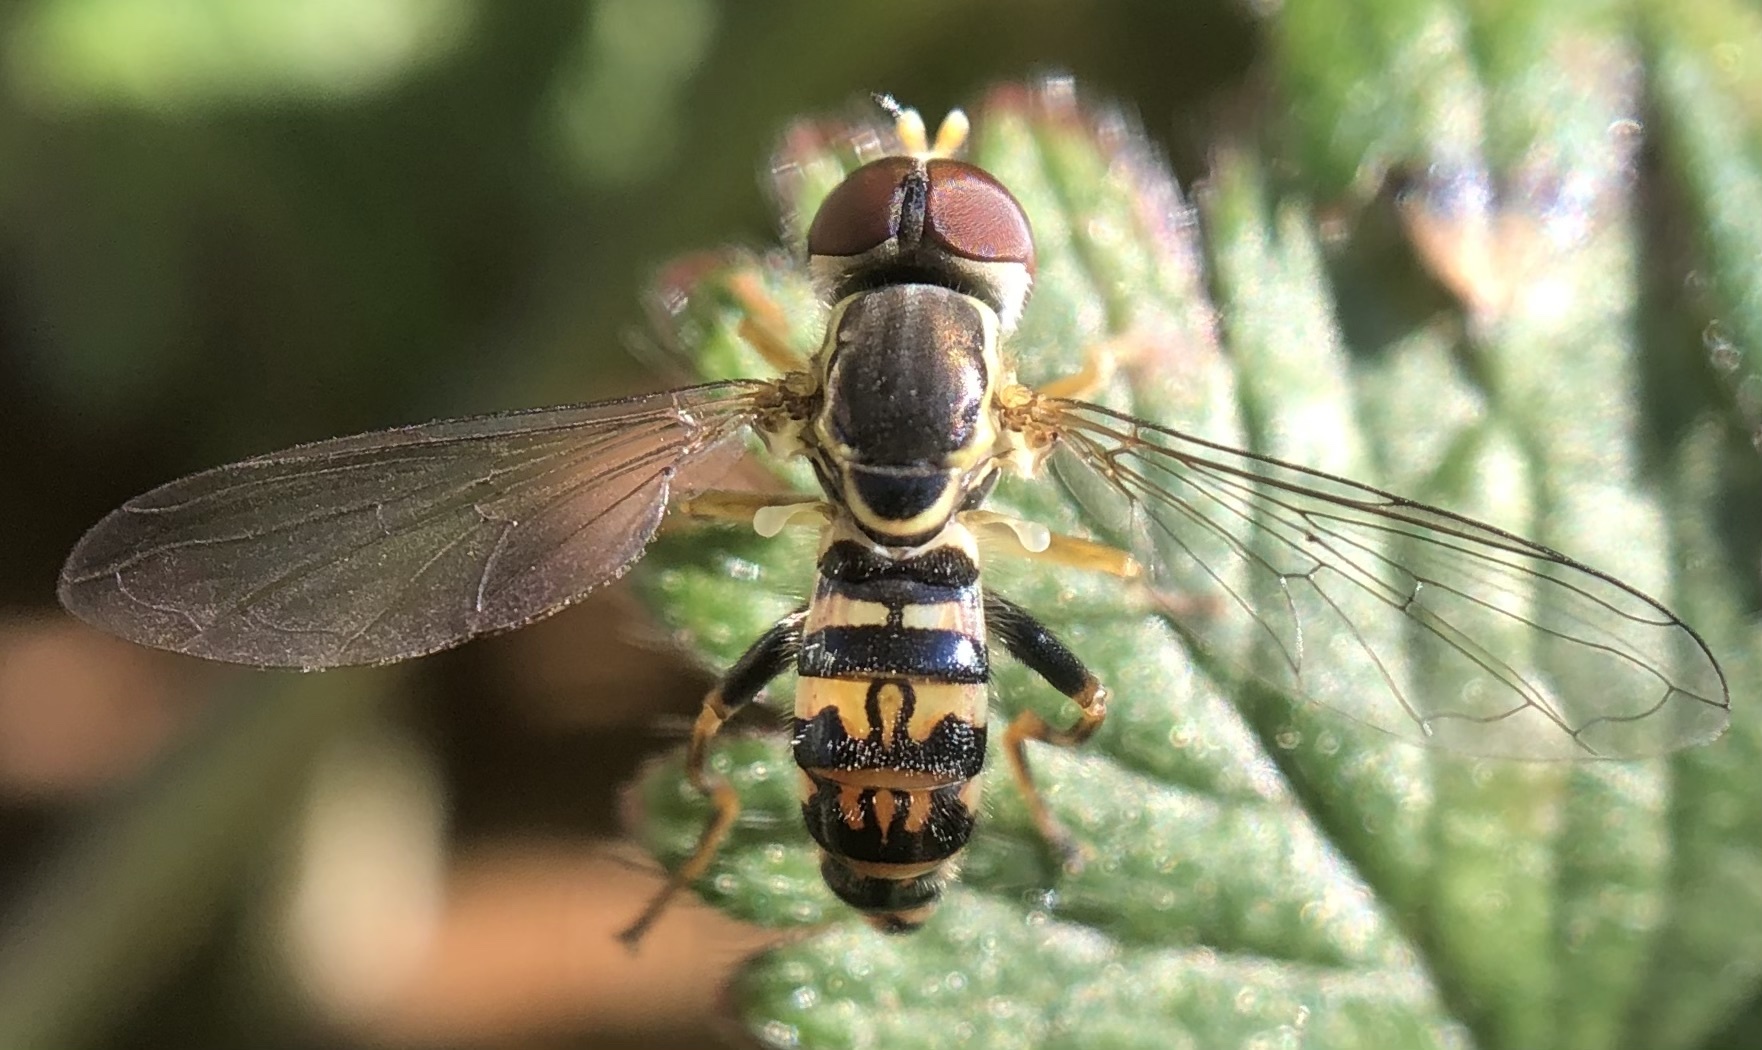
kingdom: Animalia
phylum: Arthropoda
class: Insecta
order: Diptera
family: Syrphidae
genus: Toxomerus
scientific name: Toxomerus geminatus
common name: Eastern calligrapher
